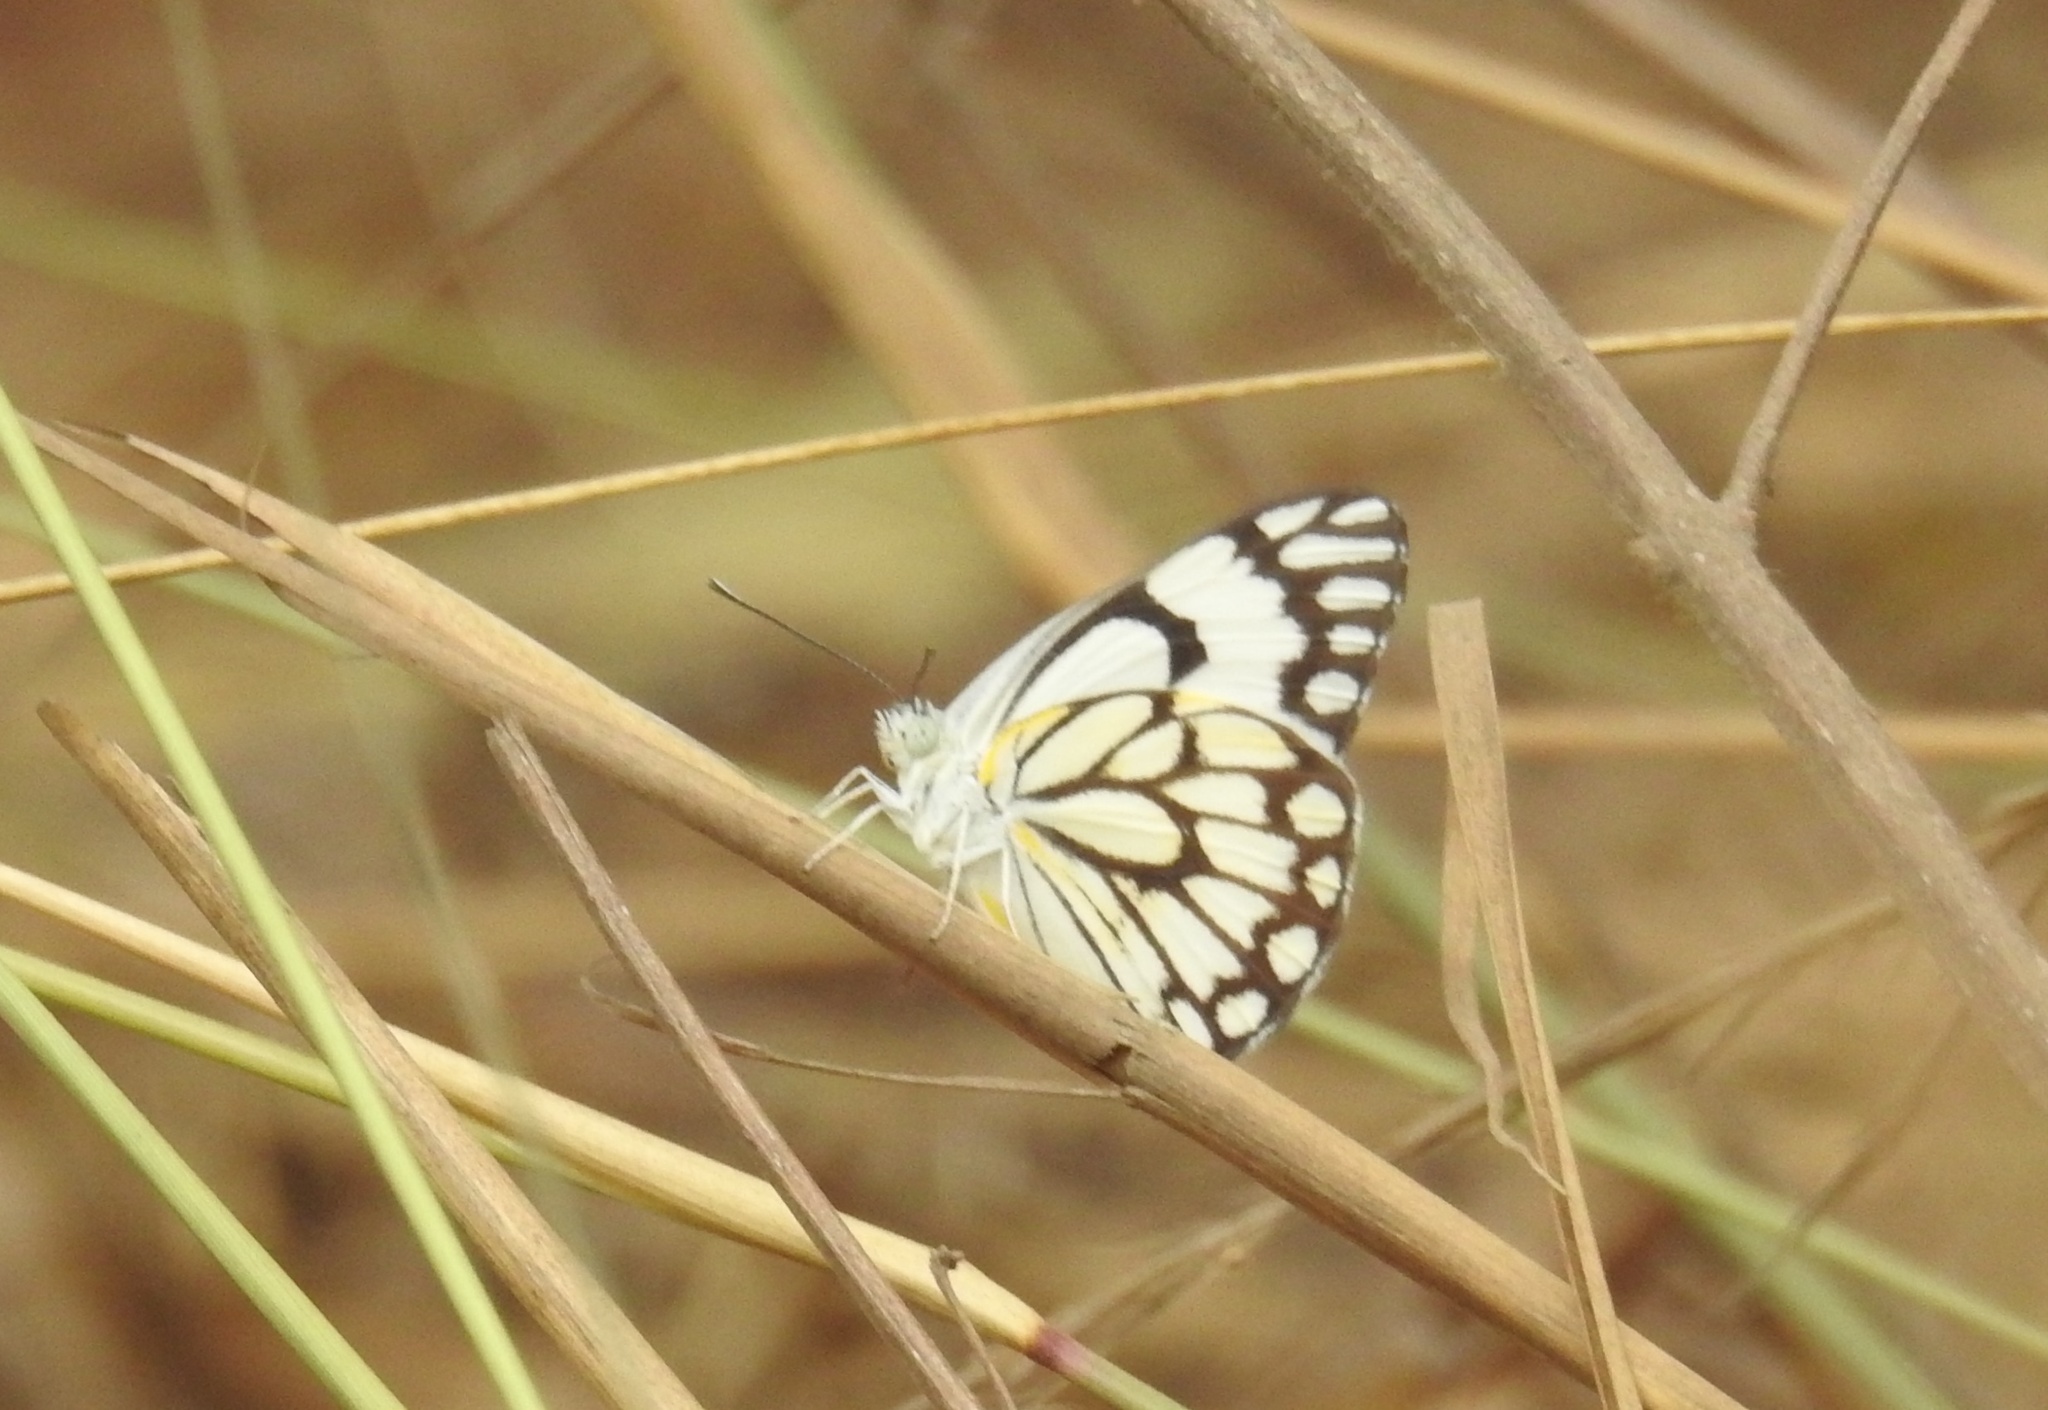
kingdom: Animalia
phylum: Arthropoda
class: Insecta
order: Lepidoptera
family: Pieridae
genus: Belenois
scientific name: Belenois aurota
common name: Brown-veined white
